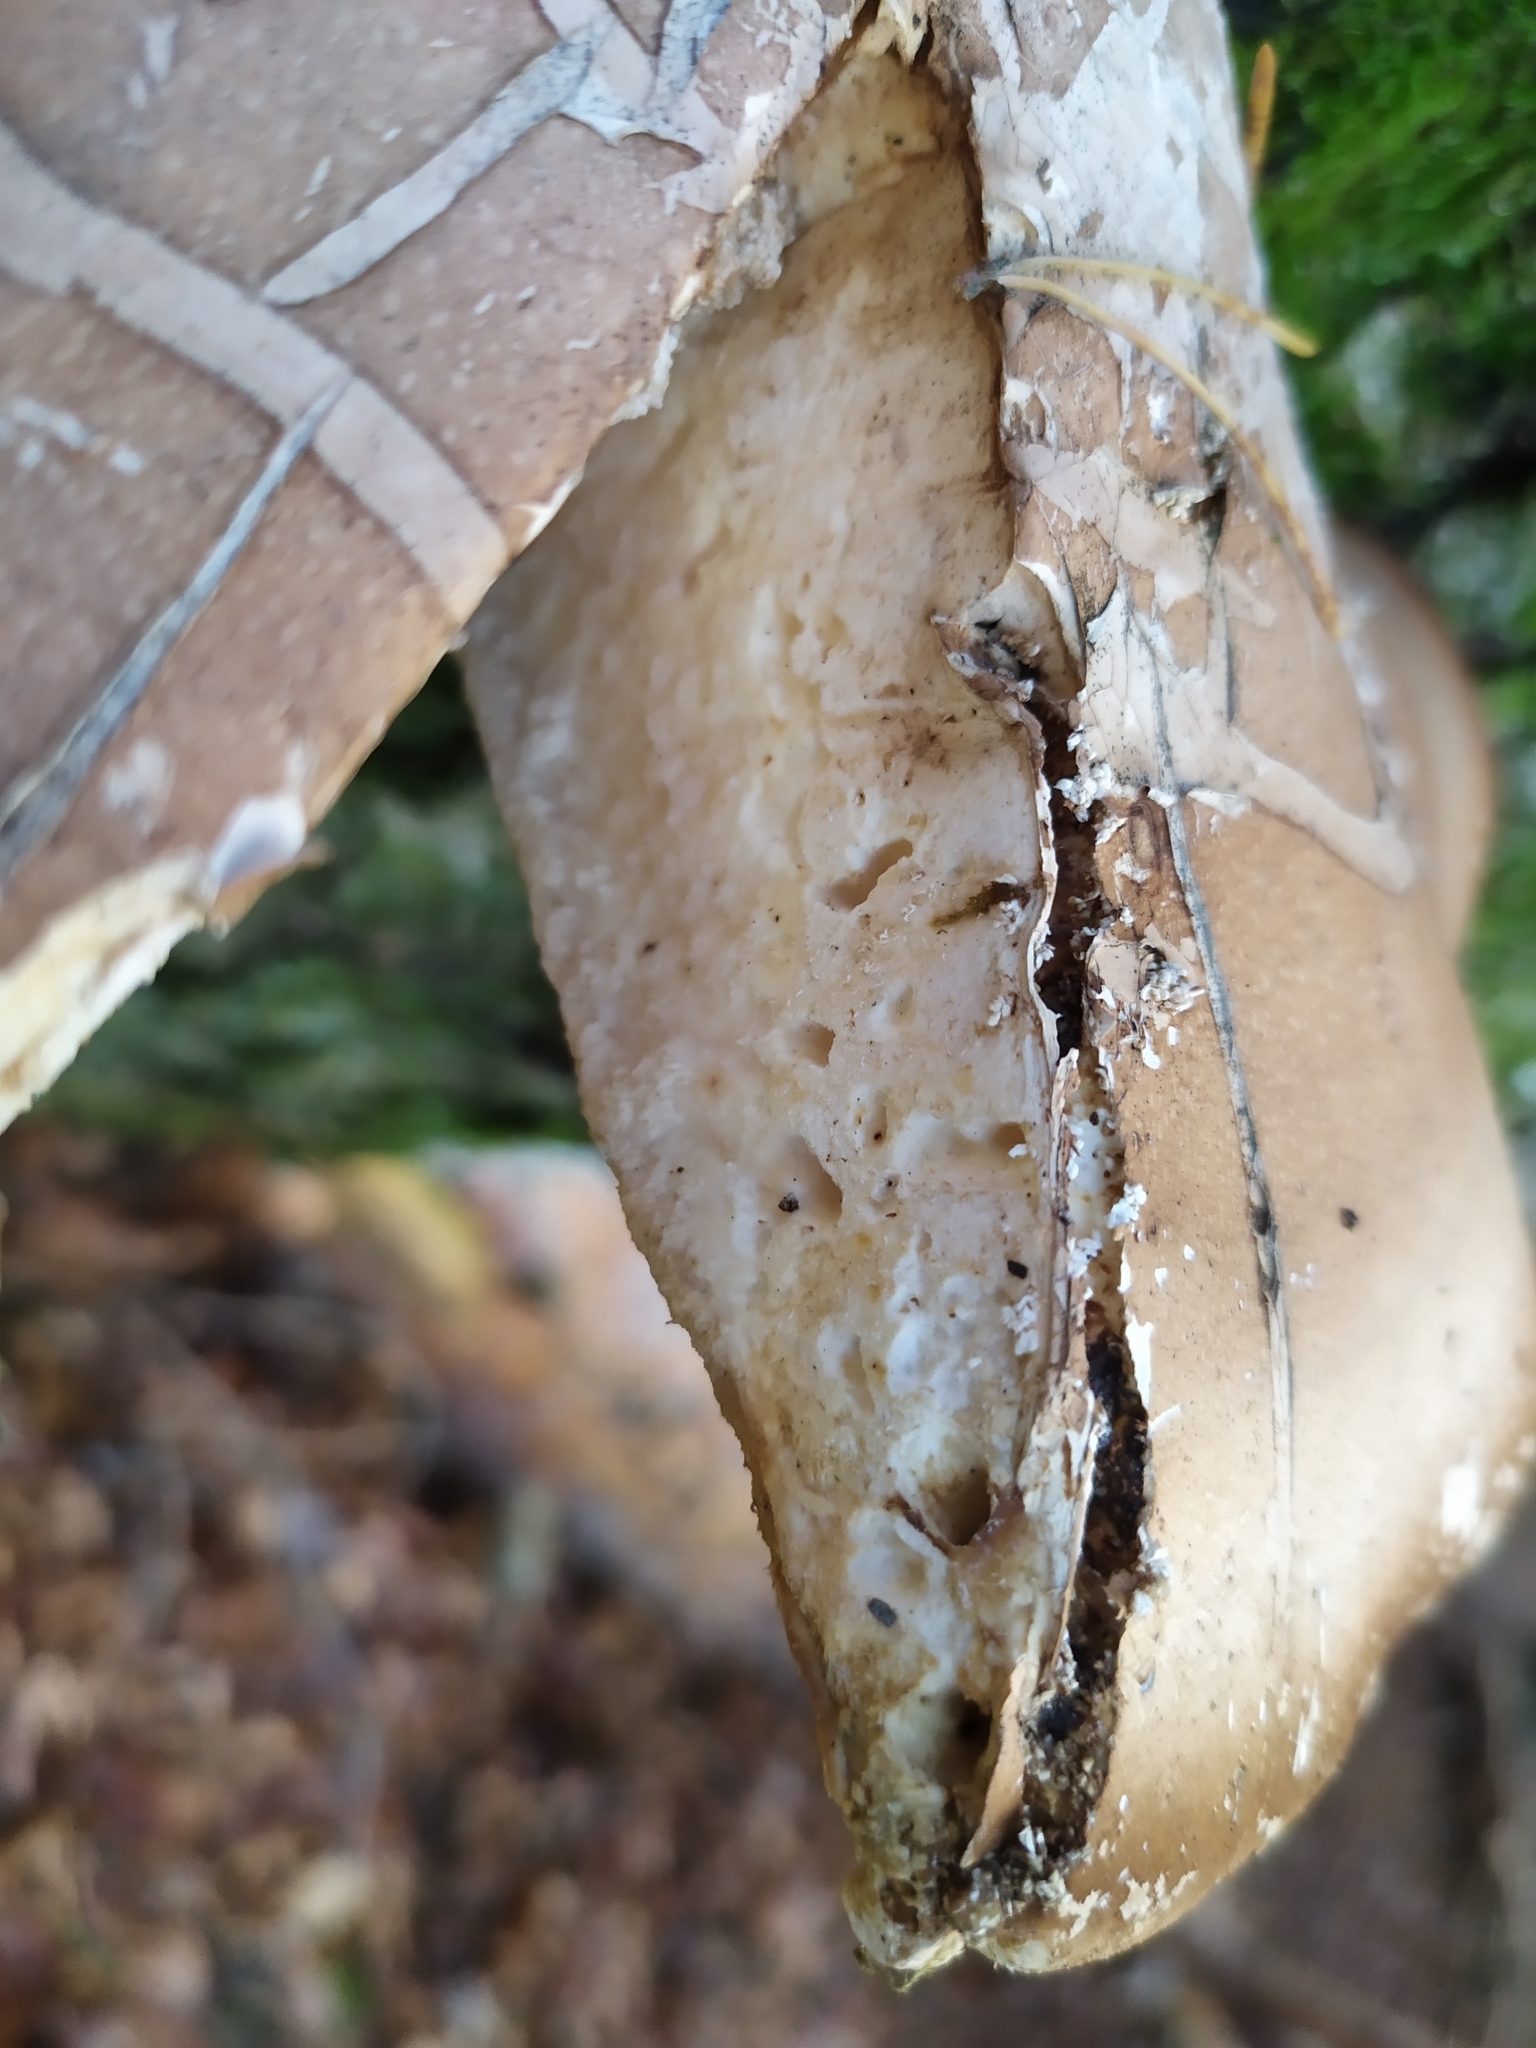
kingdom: Fungi
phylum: Basidiomycota
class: Agaricomycetes
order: Polyporales
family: Fomitopsidaceae
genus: Fomitopsis
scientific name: Fomitopsis betulina
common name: Birch polypore
